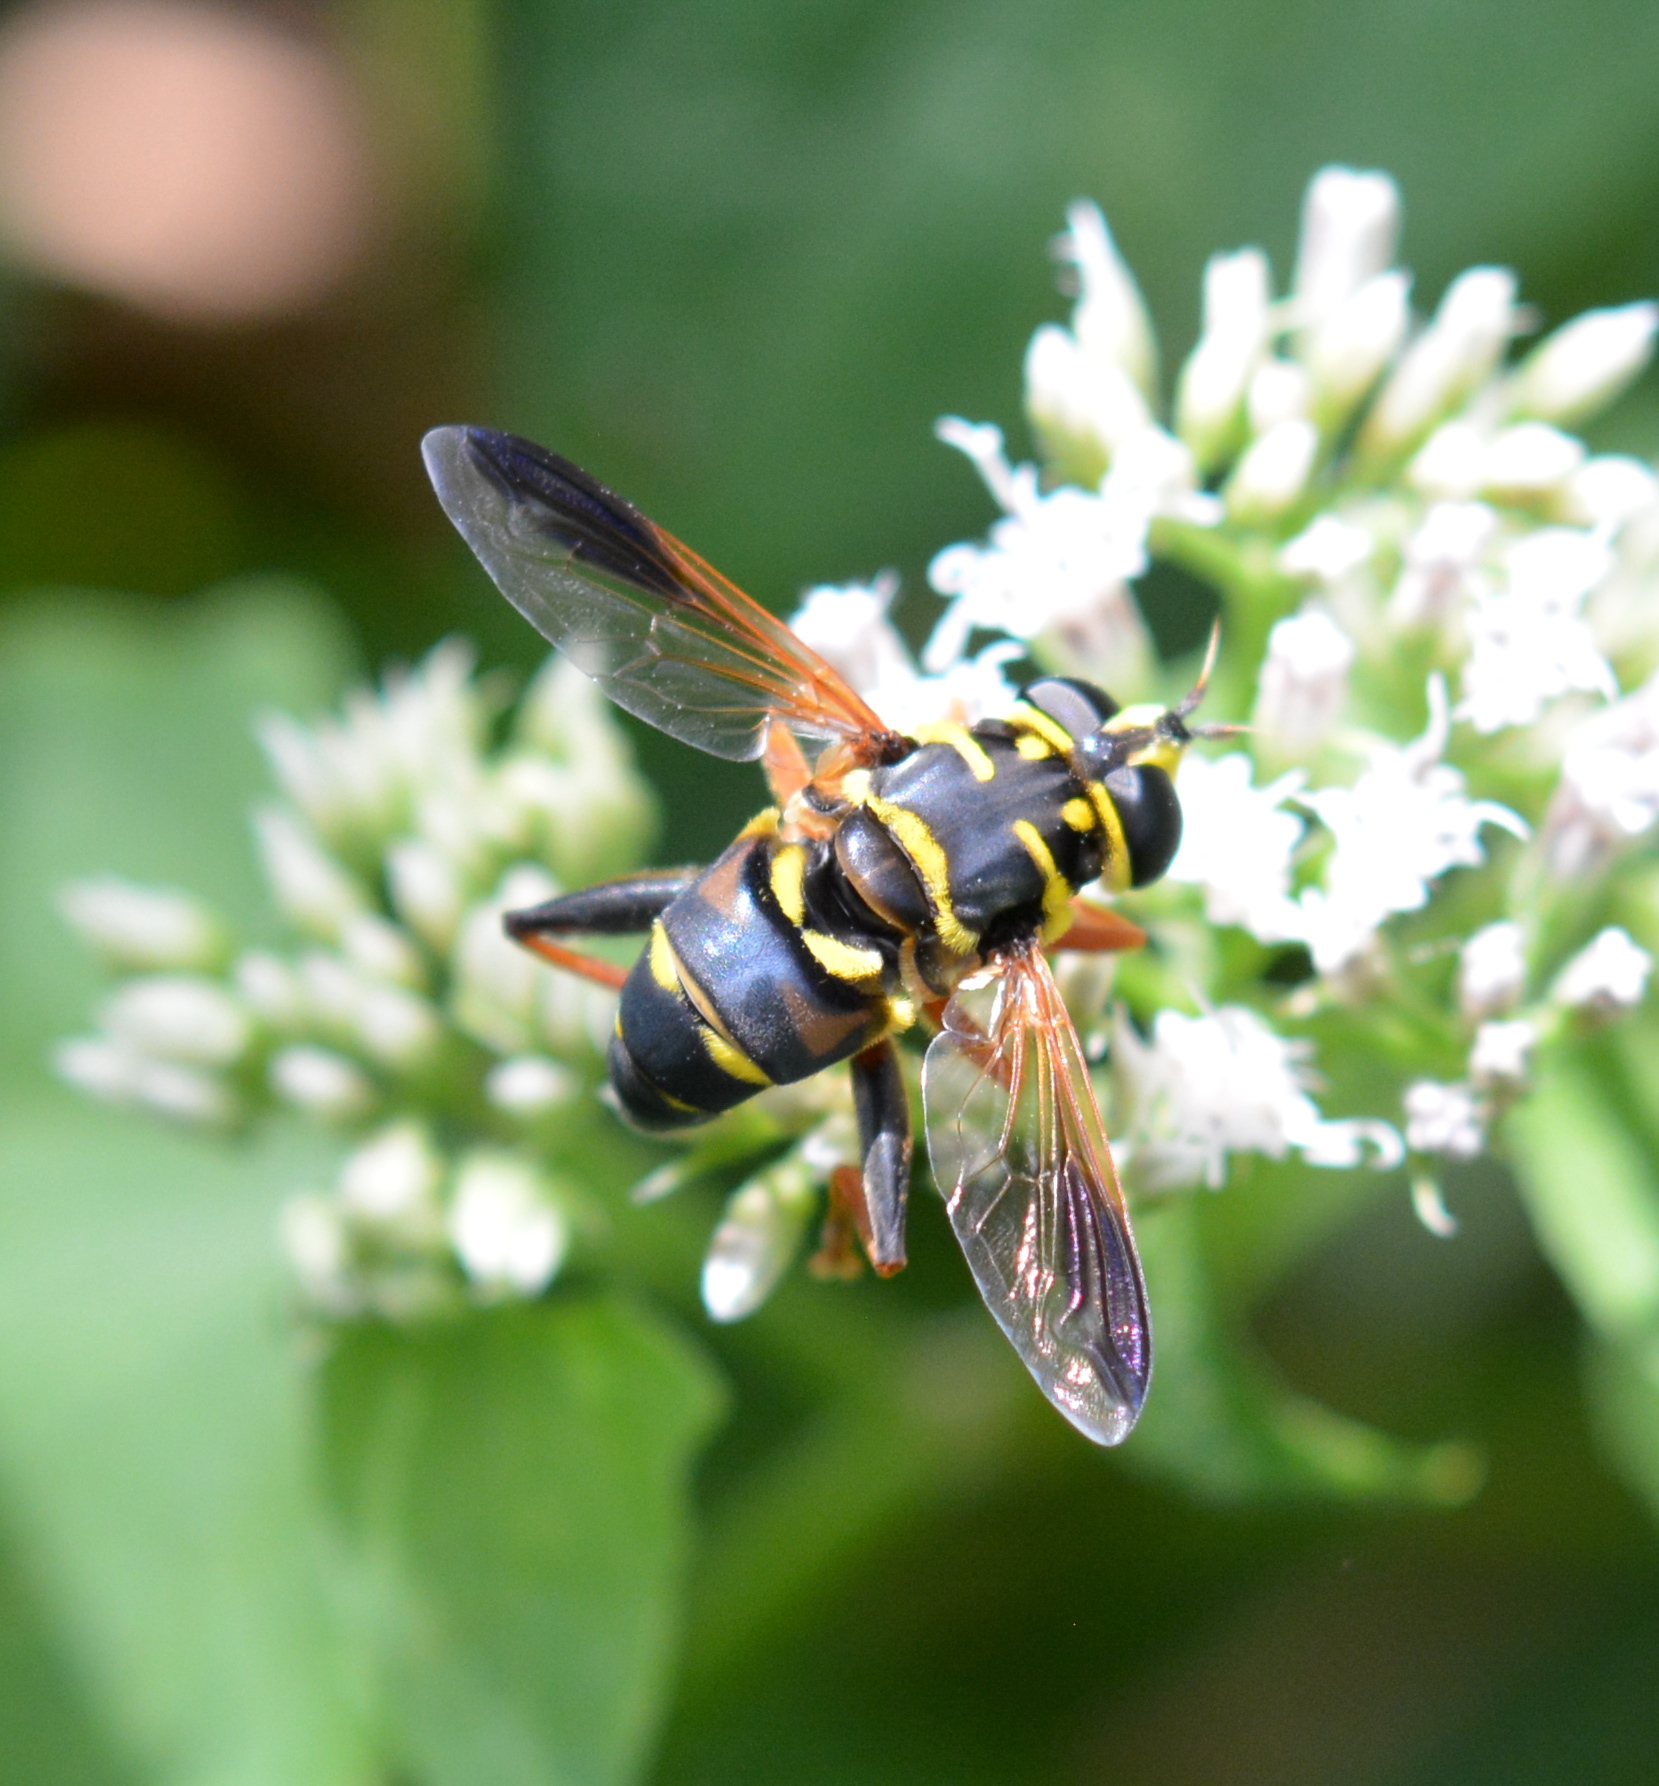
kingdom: Animalia
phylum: Arthropoda
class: Insecta
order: Diptera
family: Syrphidae
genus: Meromacrus
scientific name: Meromacrus acutus
